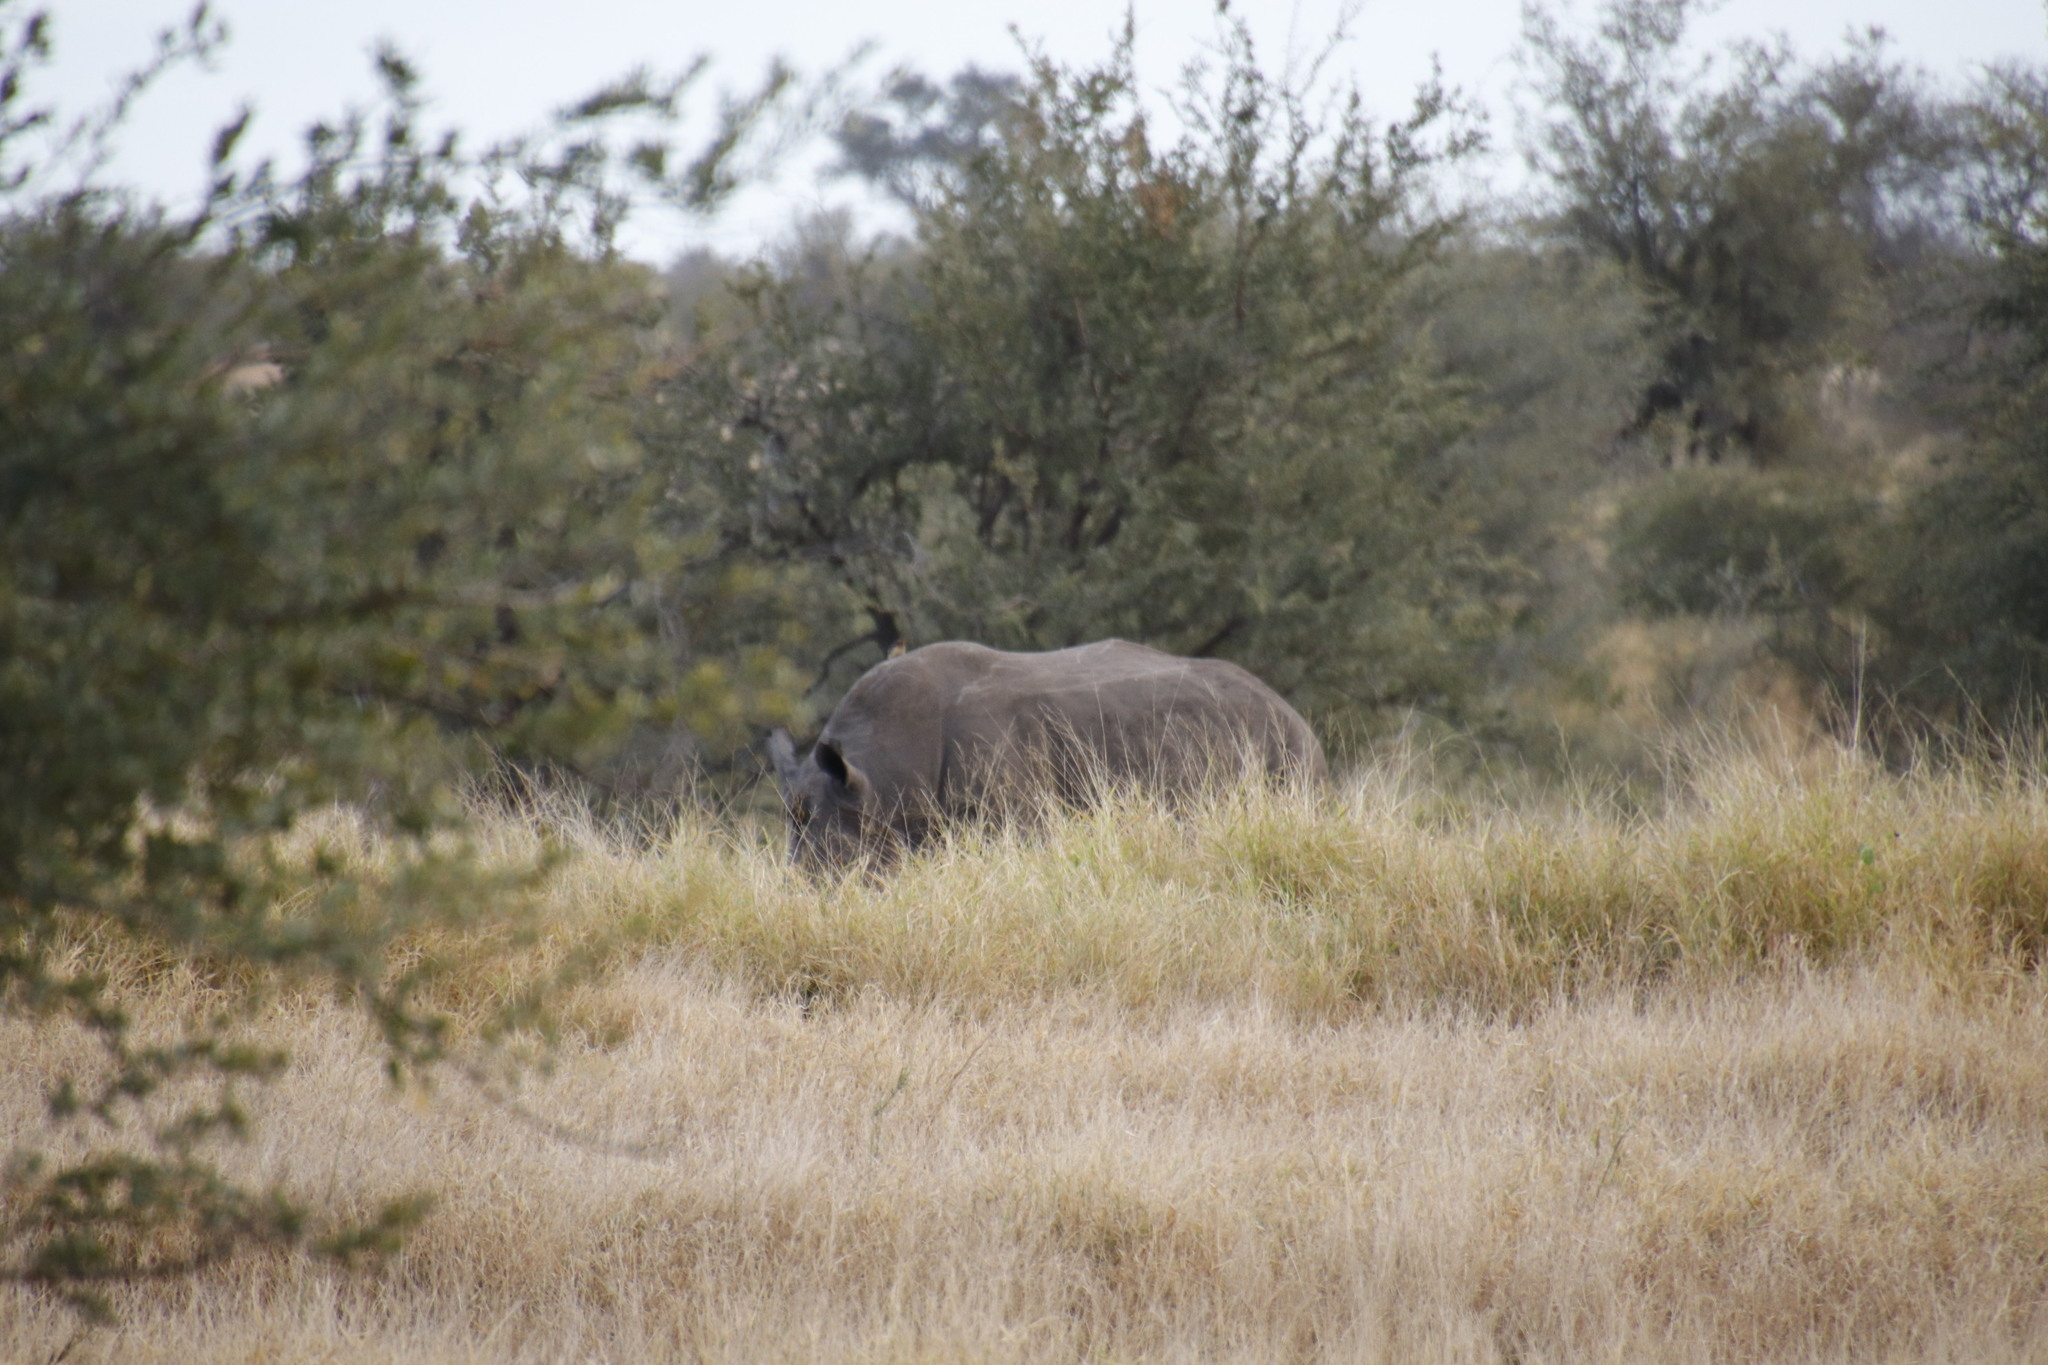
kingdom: Animalia
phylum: Chordata
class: Mammalia
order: Perissodactyla
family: Rhinocerotidae
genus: Ceratotherium
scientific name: Ceratotherium simum
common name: White rhinoceros
